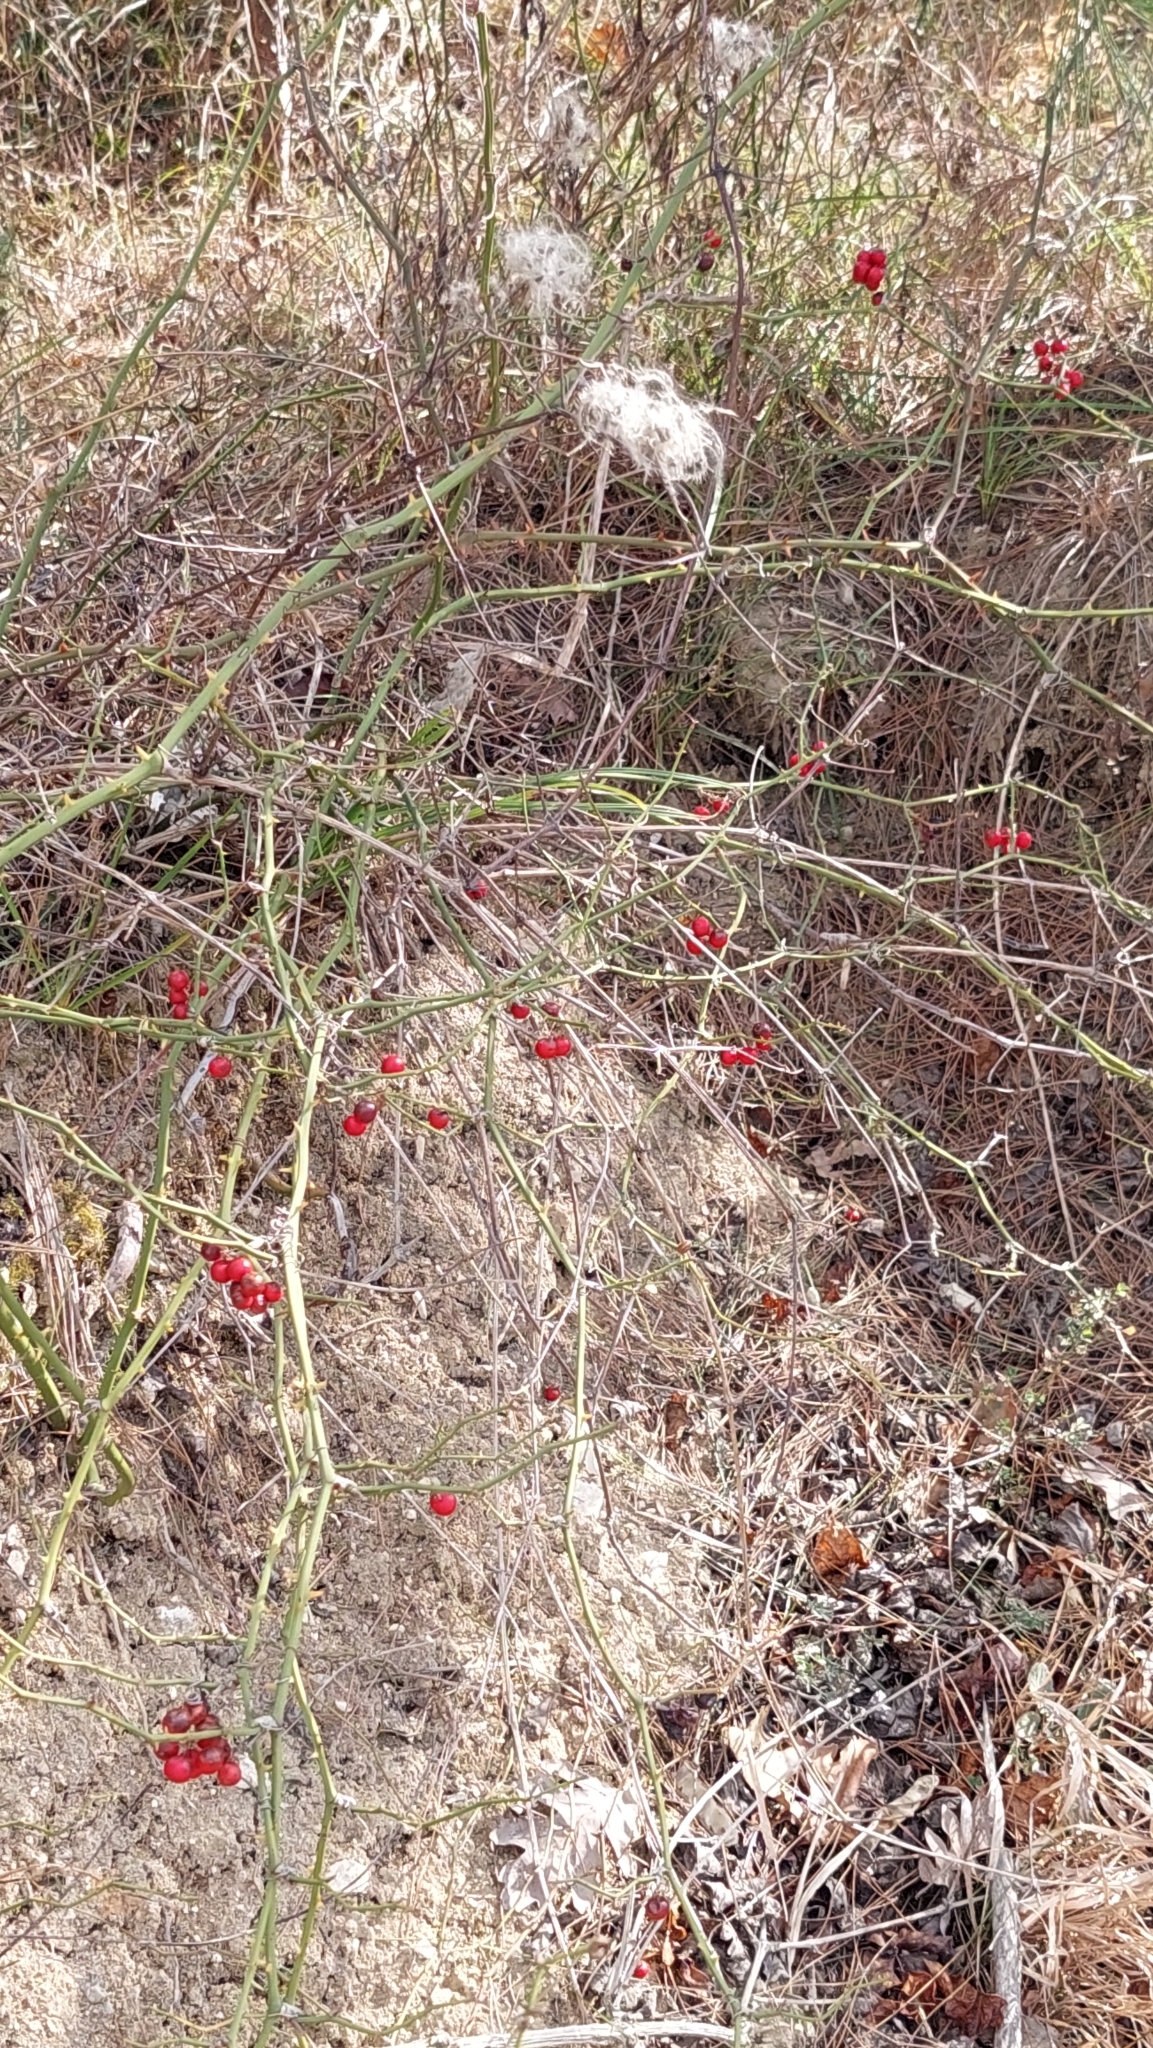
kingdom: Plantae
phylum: Tracheophyta
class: Liliopsida
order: Liliales
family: Smilacaceae
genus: Smilax
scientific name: Smilax excelsa
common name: Larger smilax
